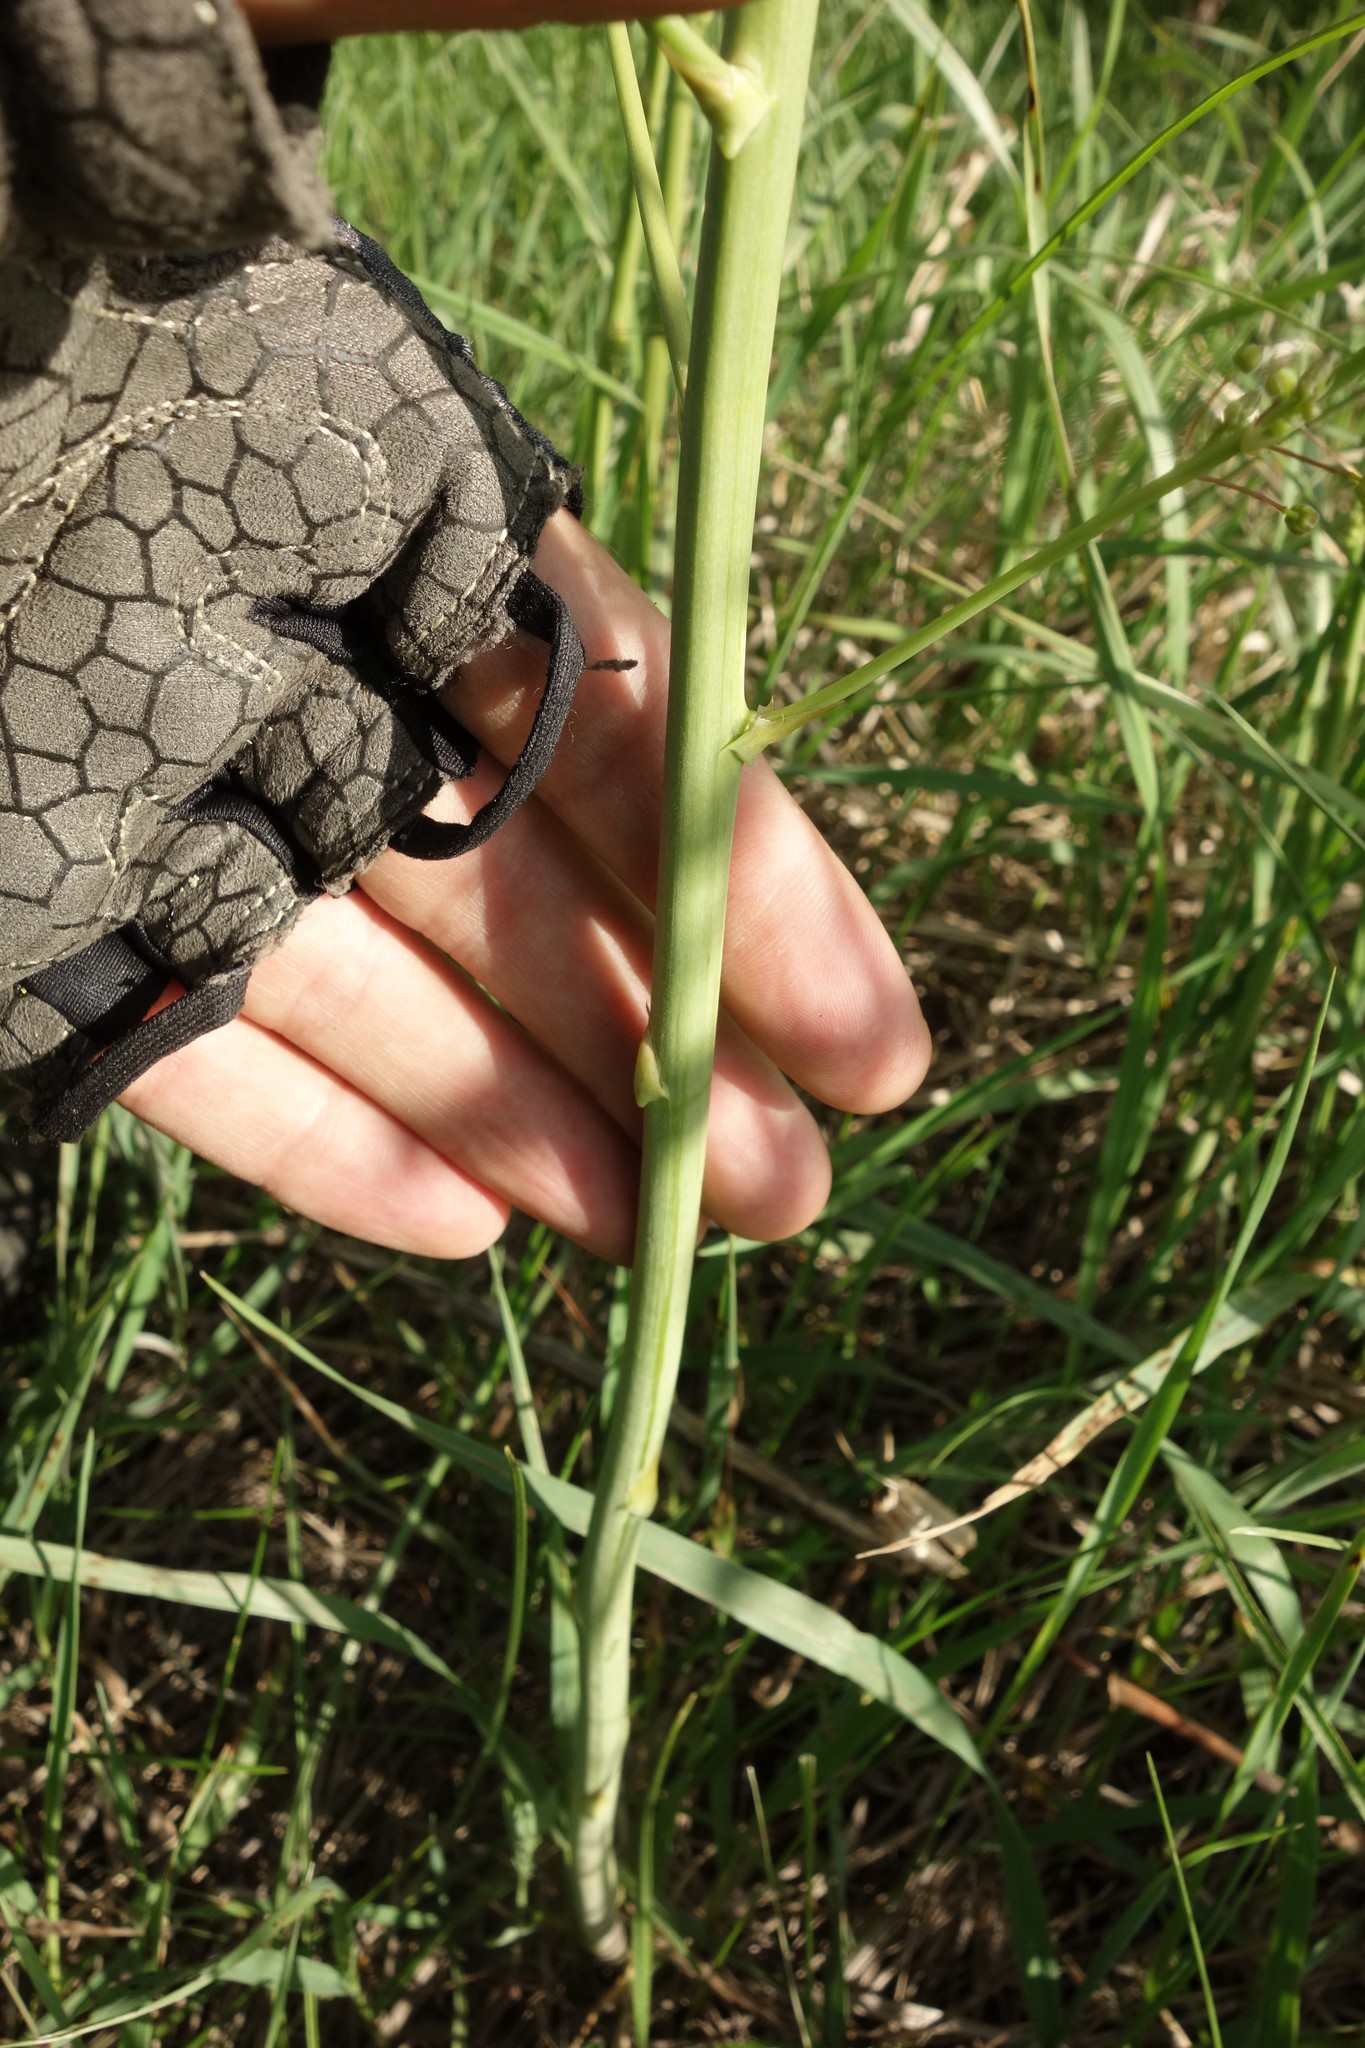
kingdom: Plantae
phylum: Tracheophyta
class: Liliopsida
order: Asparagales
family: Asparagaceae
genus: Asparagus
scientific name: Asparagus officinalis
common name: Garden asparagus
